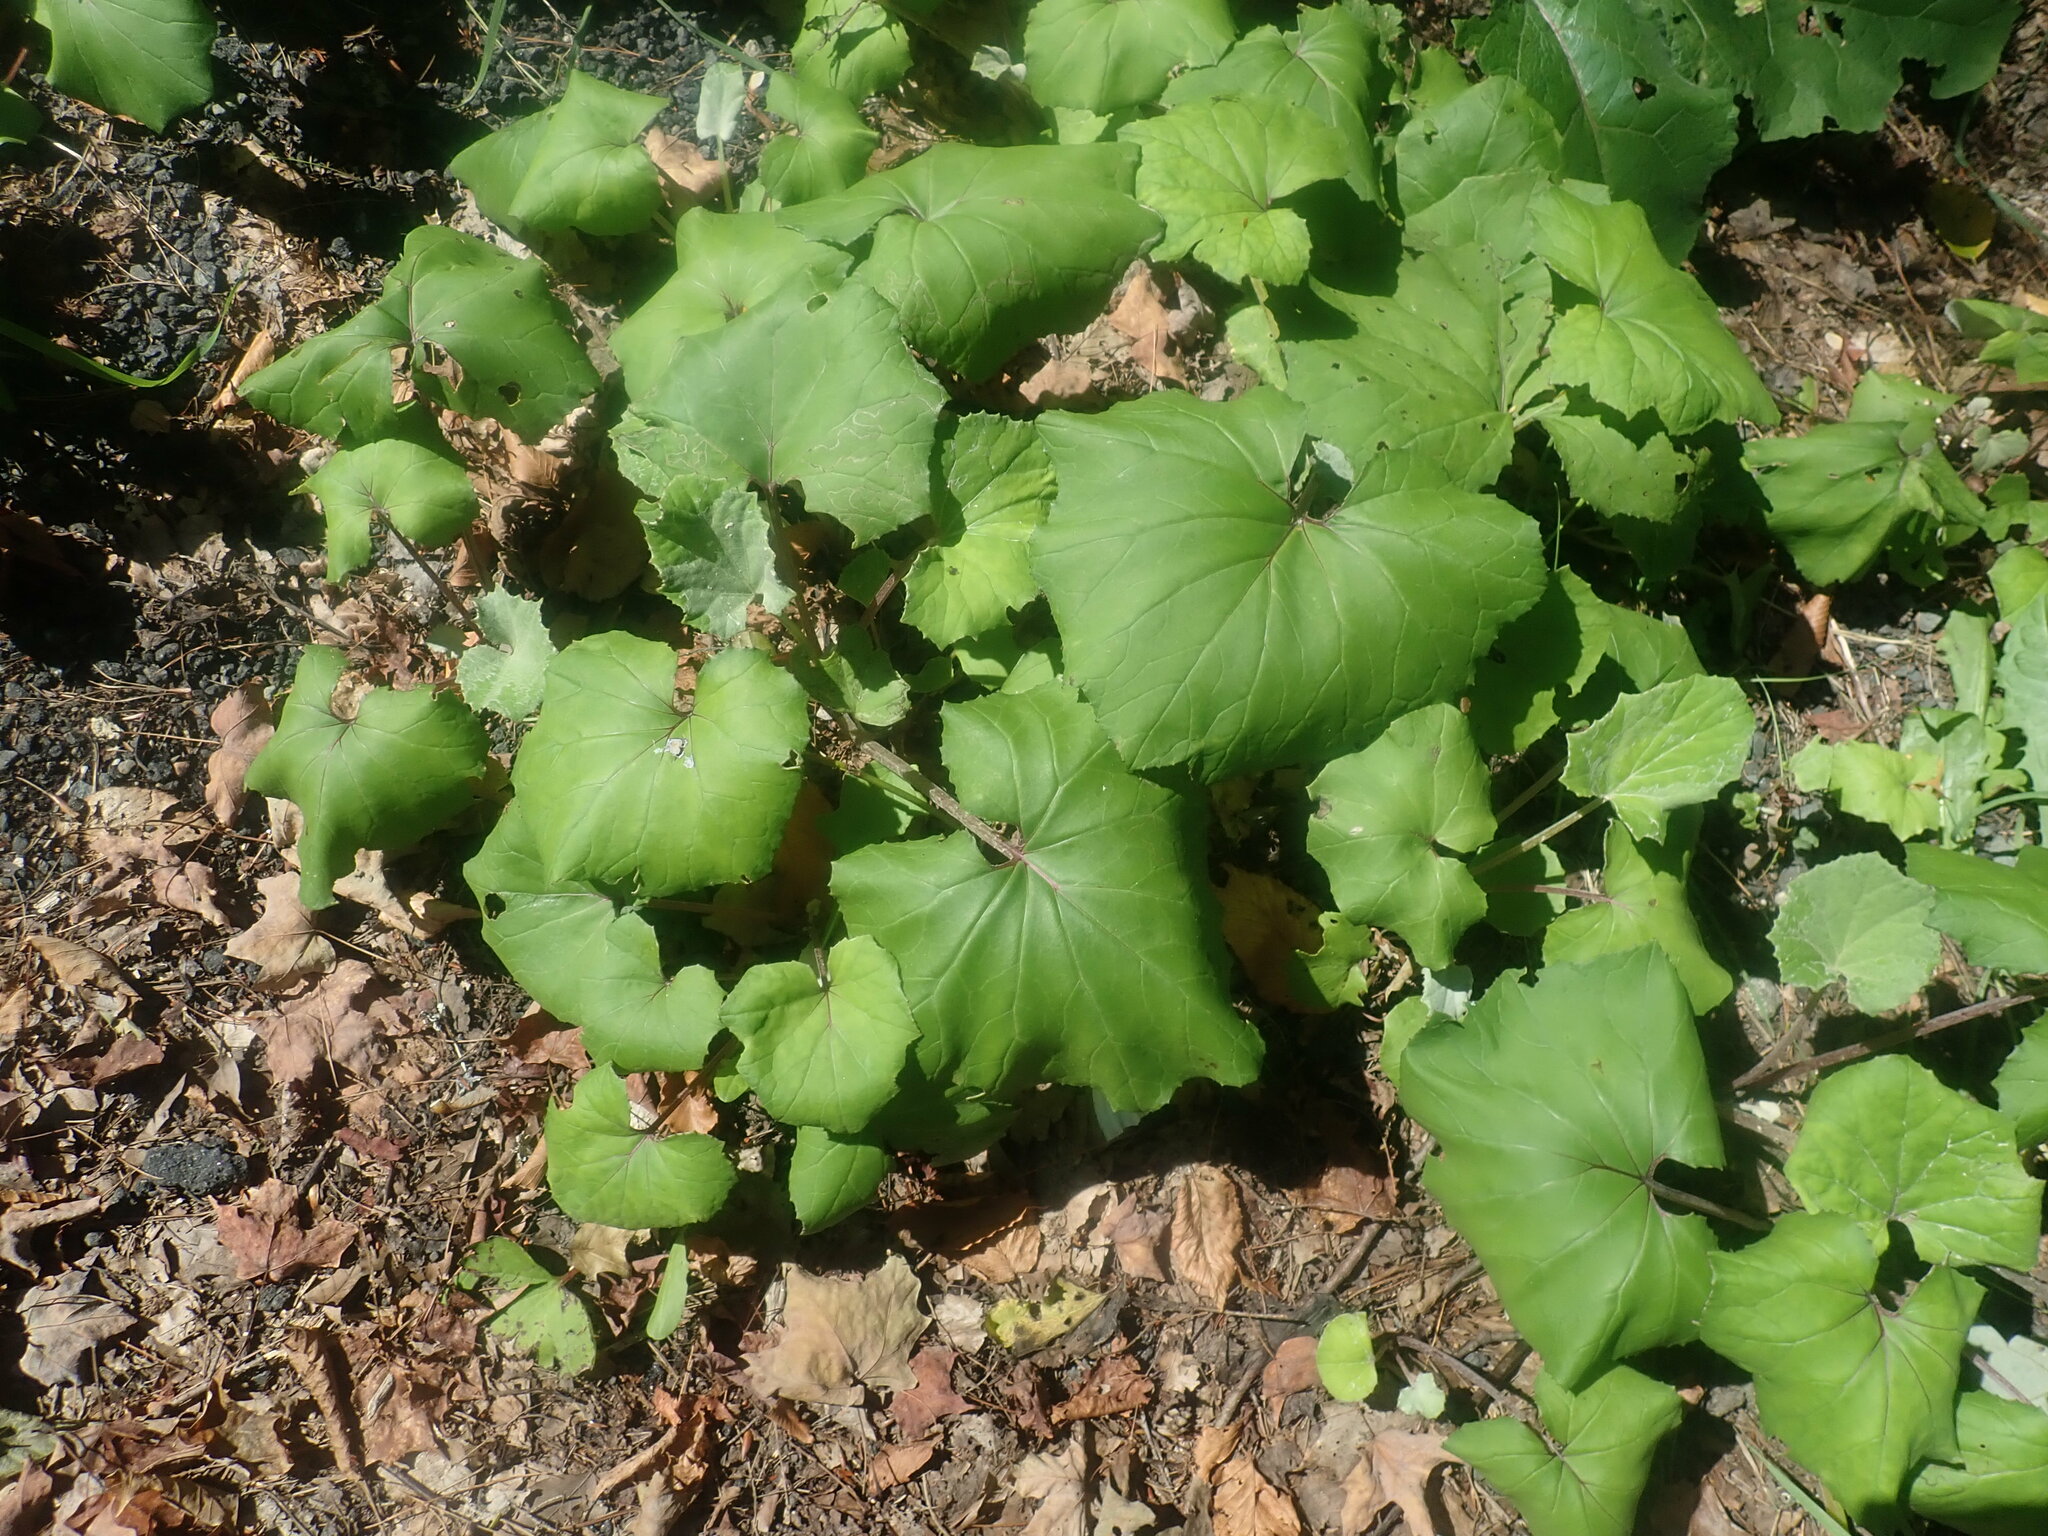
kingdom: Plantae
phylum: Tracheophyta
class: Magnoliopsida
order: Asterales
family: Asteraceae
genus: Tussilago
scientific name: Tussilago farfara
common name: Coltsfoot
